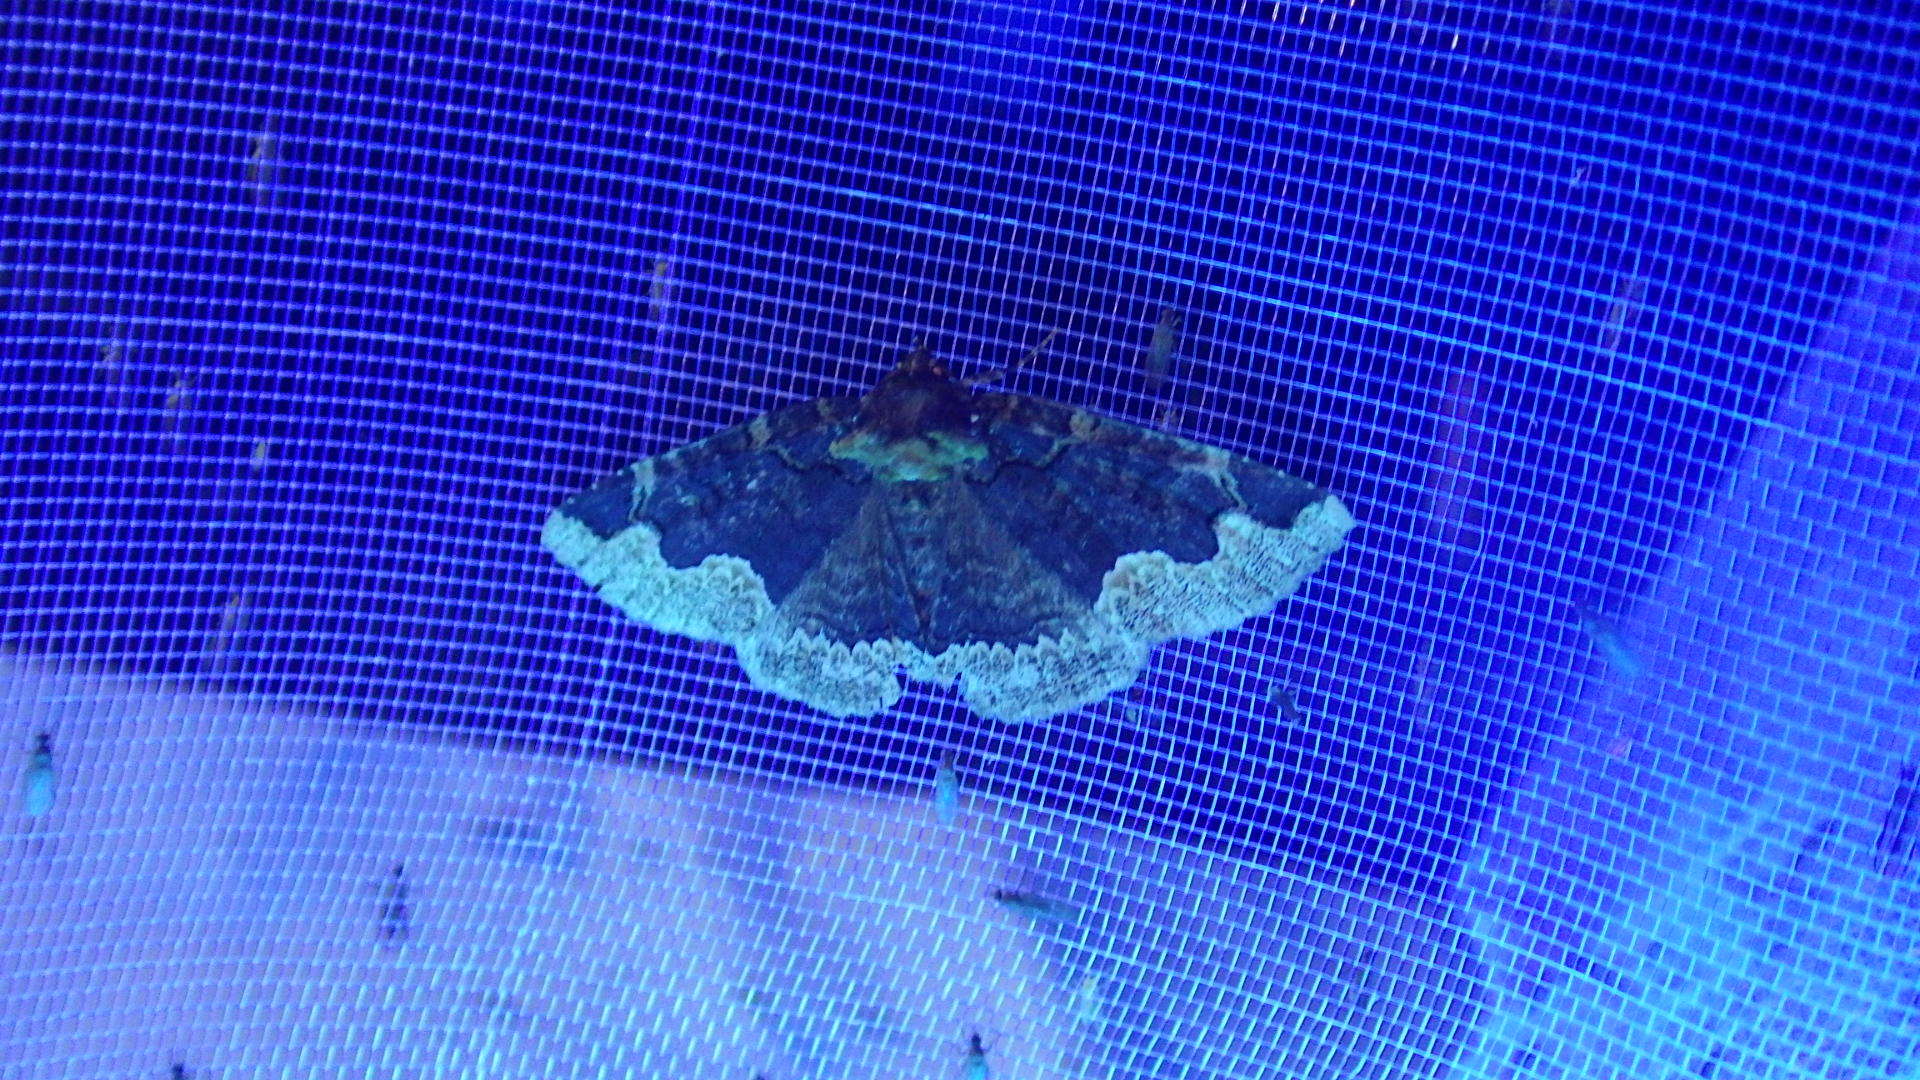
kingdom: Animalia
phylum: Arthropoda
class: Insecta
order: Lepidoptera
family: Erebidae
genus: Zale
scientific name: Zale horrida
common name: Horrid zale moth
